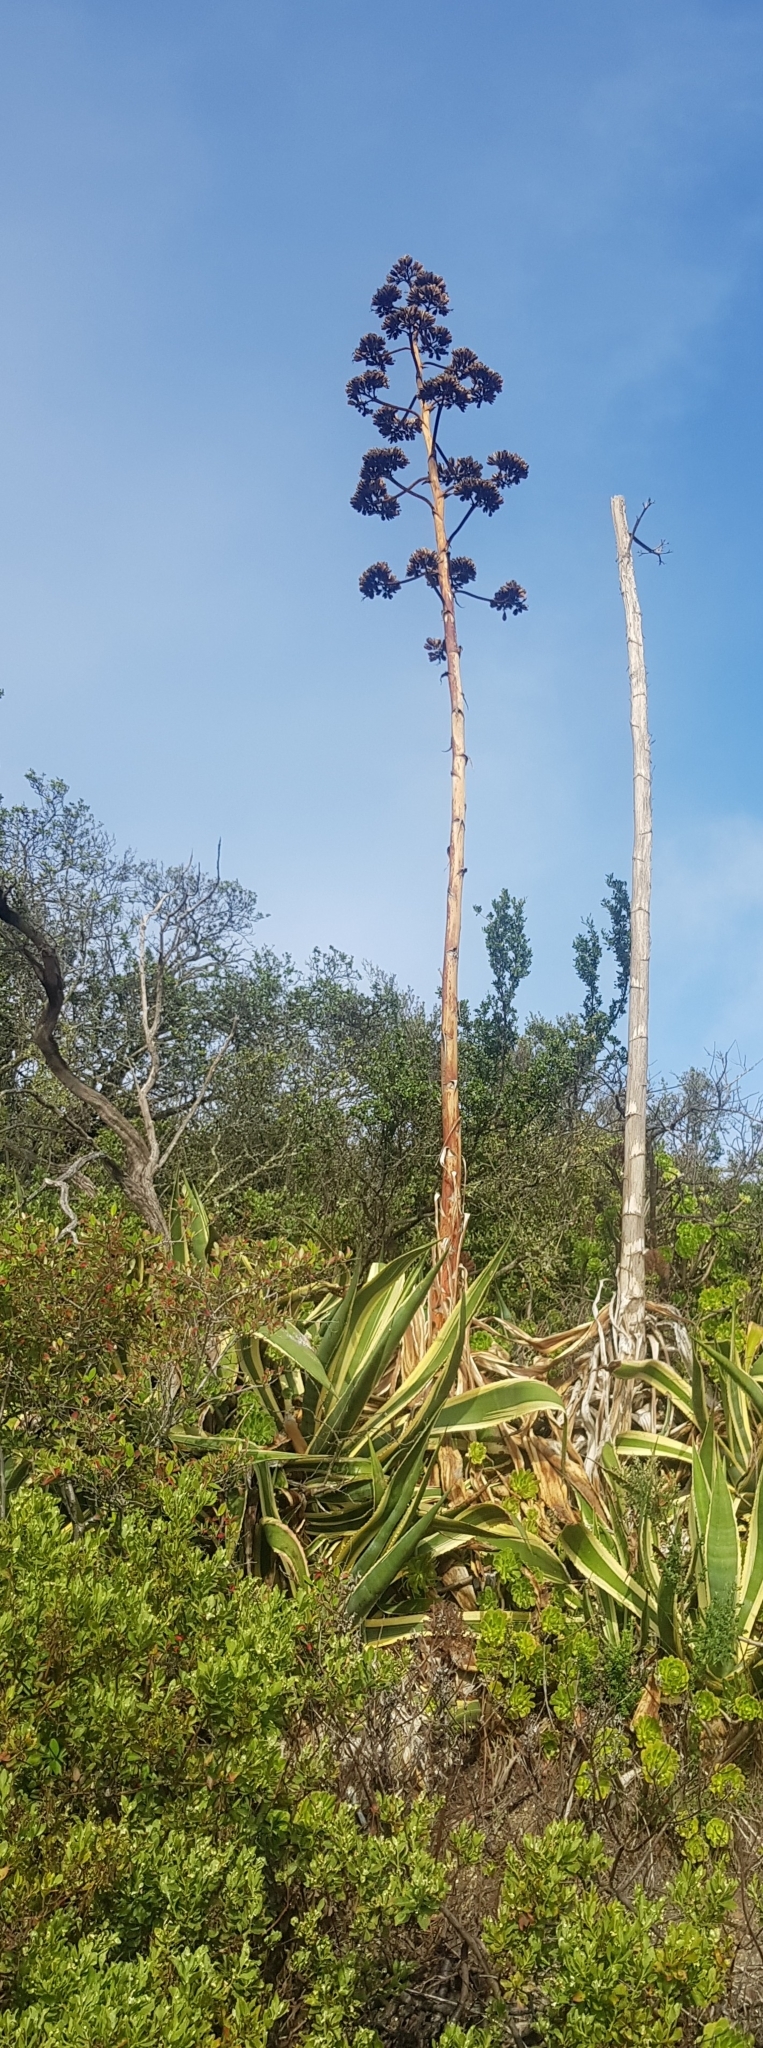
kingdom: Plantae
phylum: Tracheophyta
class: Liliopsida
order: Asparagales
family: Asparagaceae
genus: Agave
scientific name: Agave americana
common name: Centuryplant
